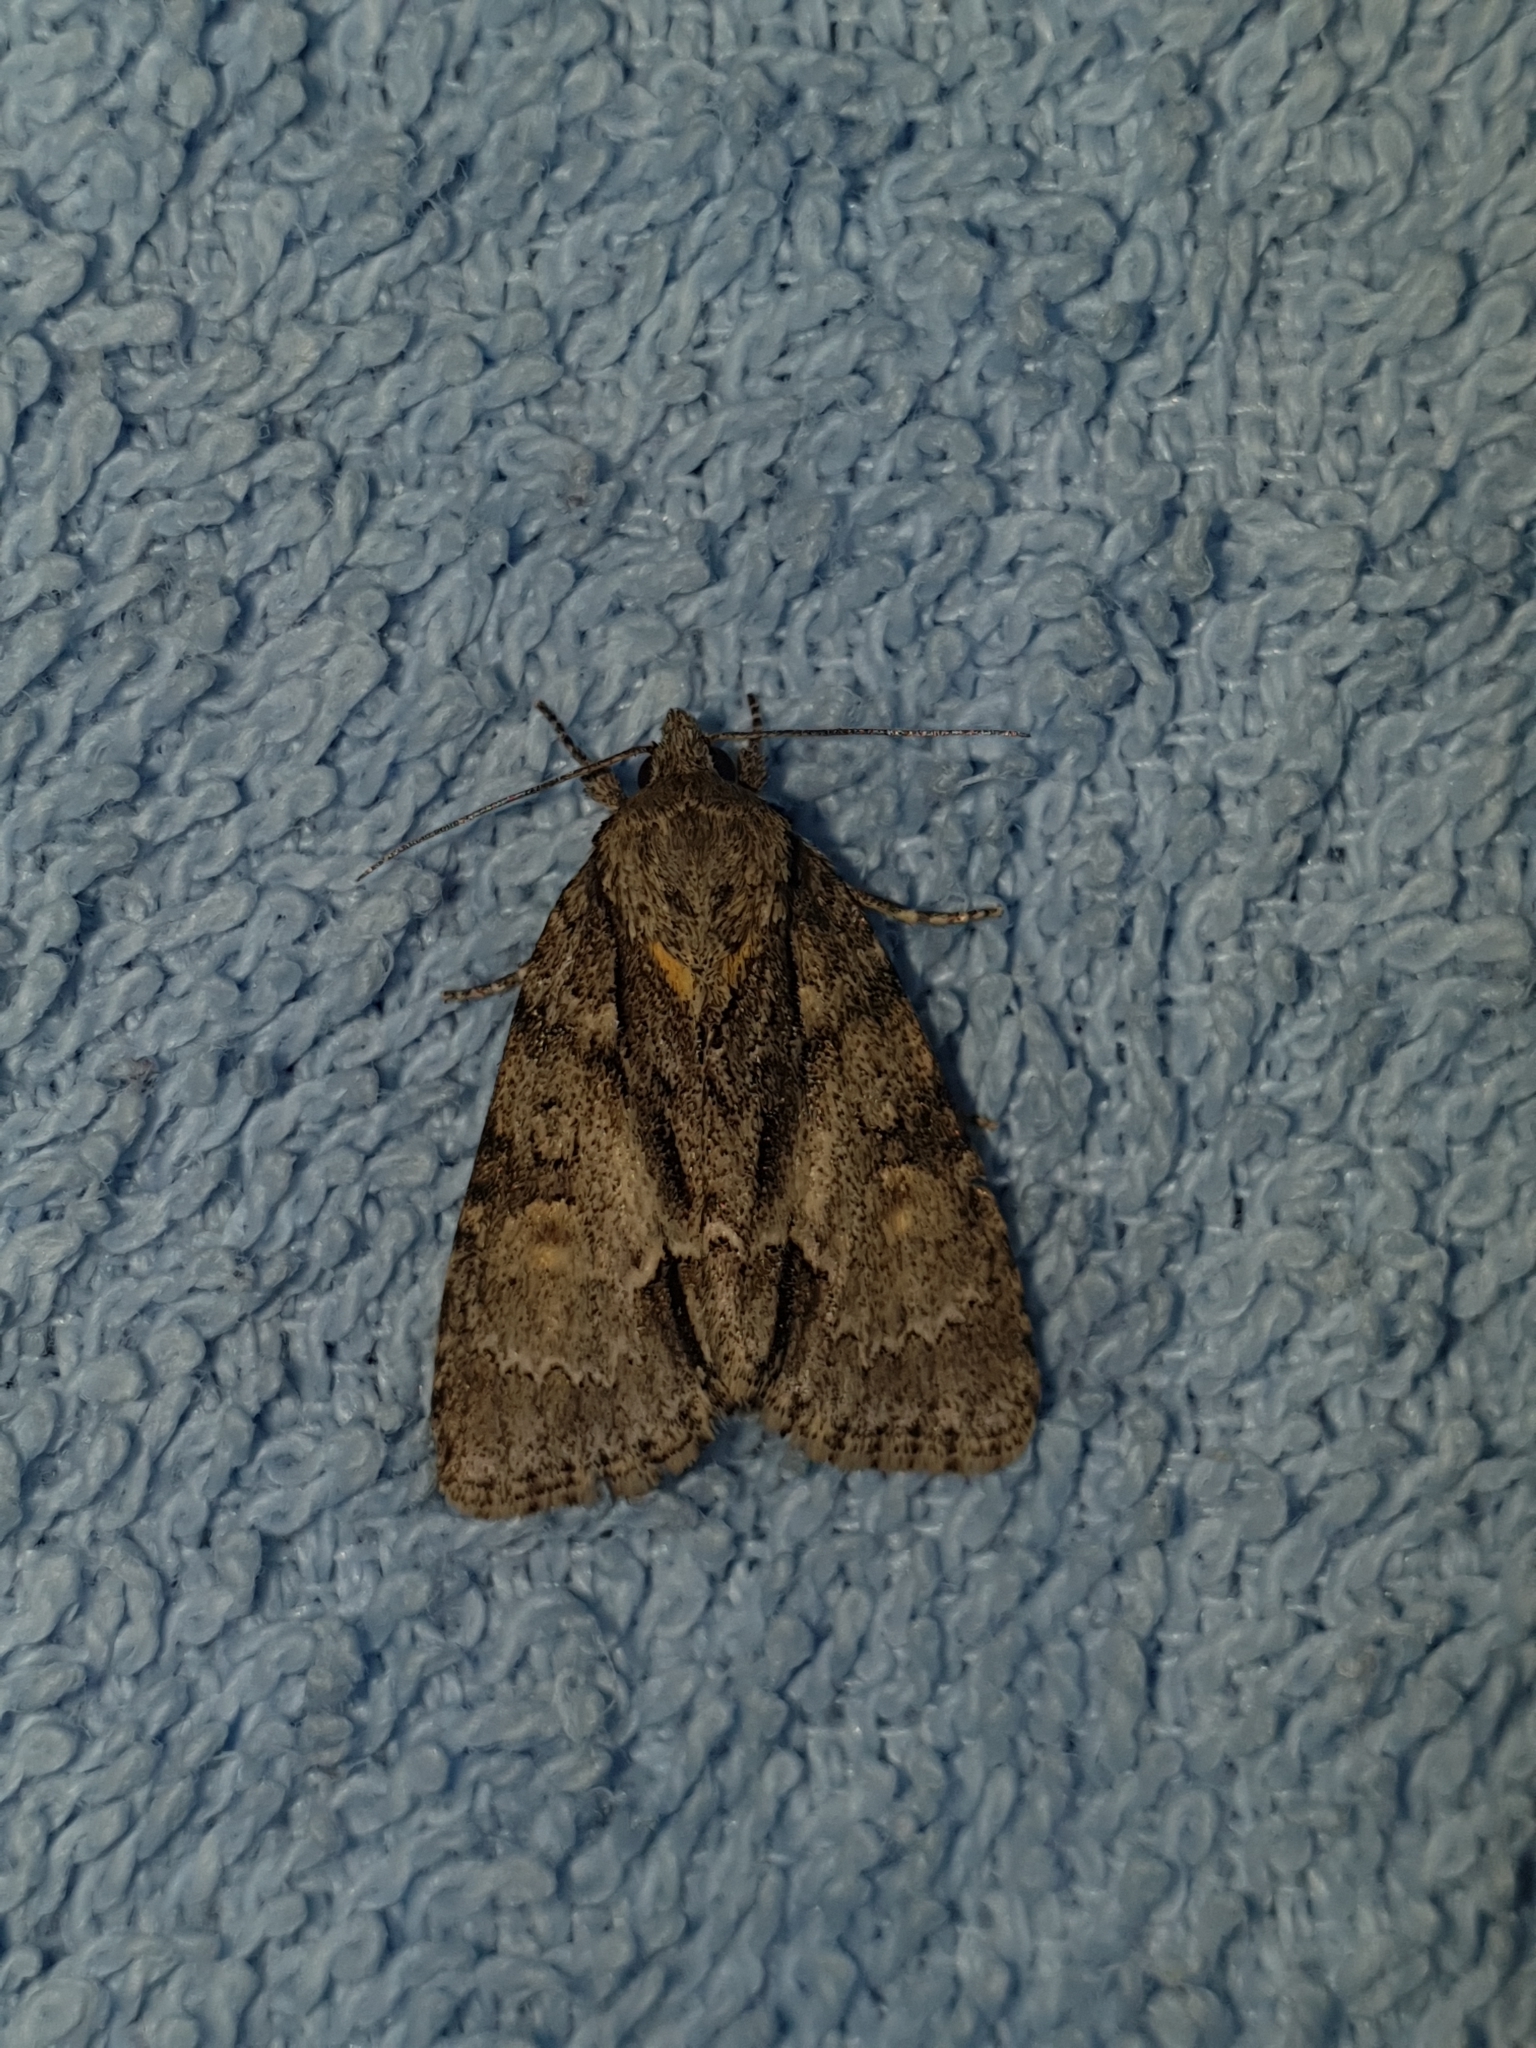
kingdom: Animalia
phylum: Arthropoda
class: Insecta
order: Lepidoptera
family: Noctuidae
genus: Acronicta
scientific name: Acronicta strigosa
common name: Marsh dagger
